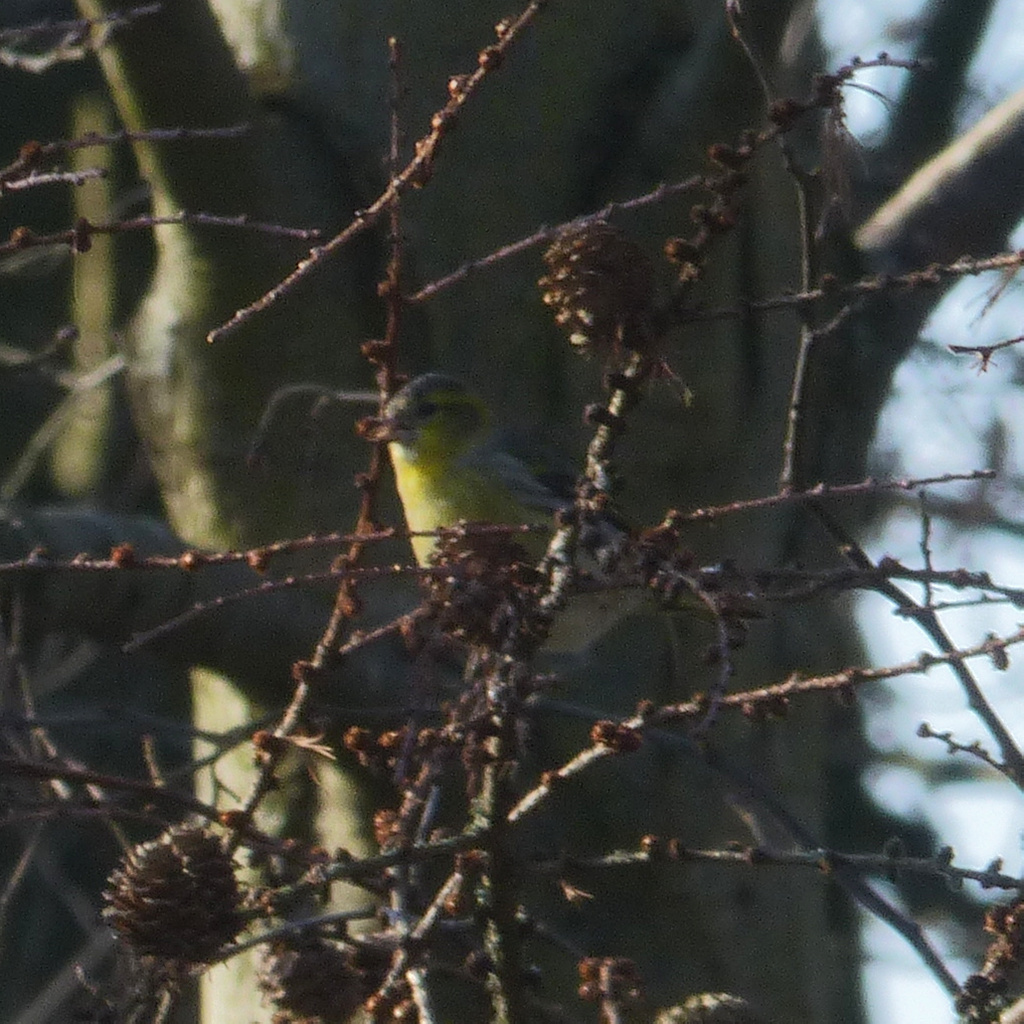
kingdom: Animalia
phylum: Chordata
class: Aves
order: Passeriformes
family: Fringillidae
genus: Spinus
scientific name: Spinus spinus
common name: Eurasian siskin
